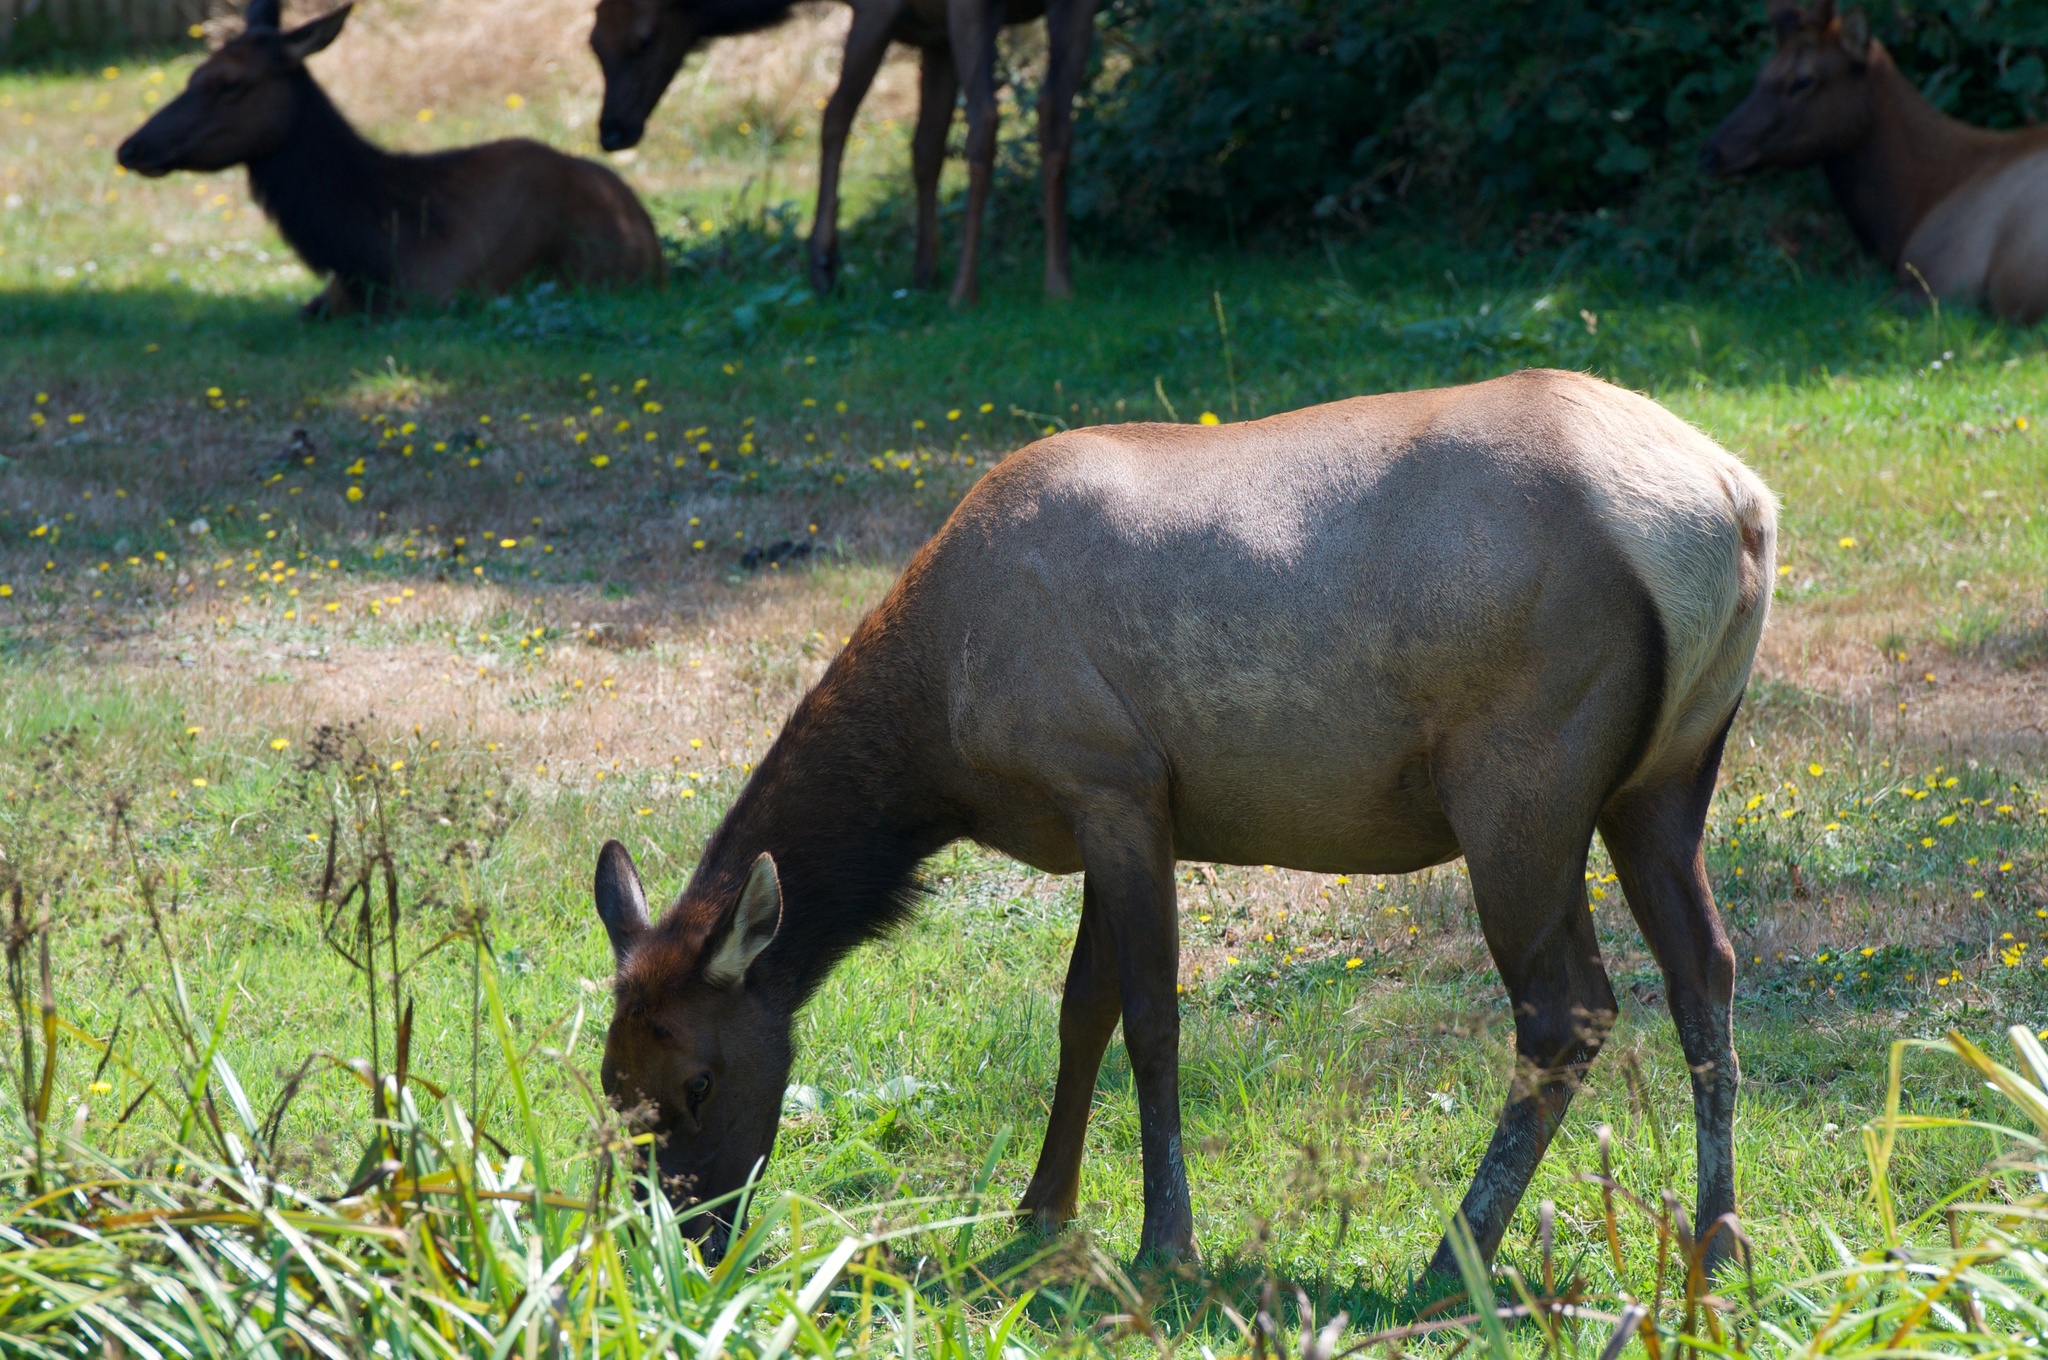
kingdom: Animalia
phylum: Chordata
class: Mammalia
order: Artiodactyla
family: Cervidae
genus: Cervus
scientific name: Cervus elaphus
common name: Red deer
